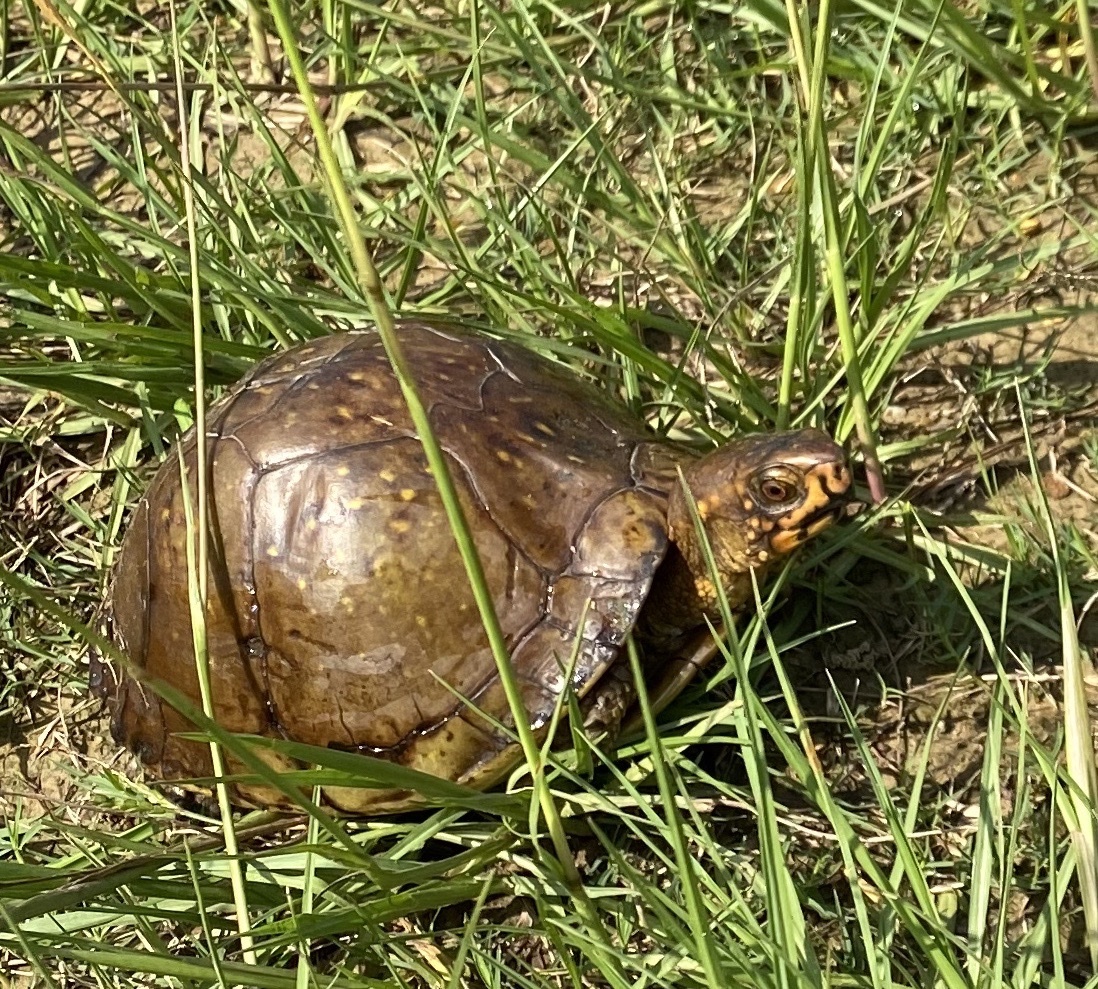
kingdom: Animalia
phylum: Chordata
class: Testudines
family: Emydidae
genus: Terrapene
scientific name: Terrapene carolina
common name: Common box turtle
